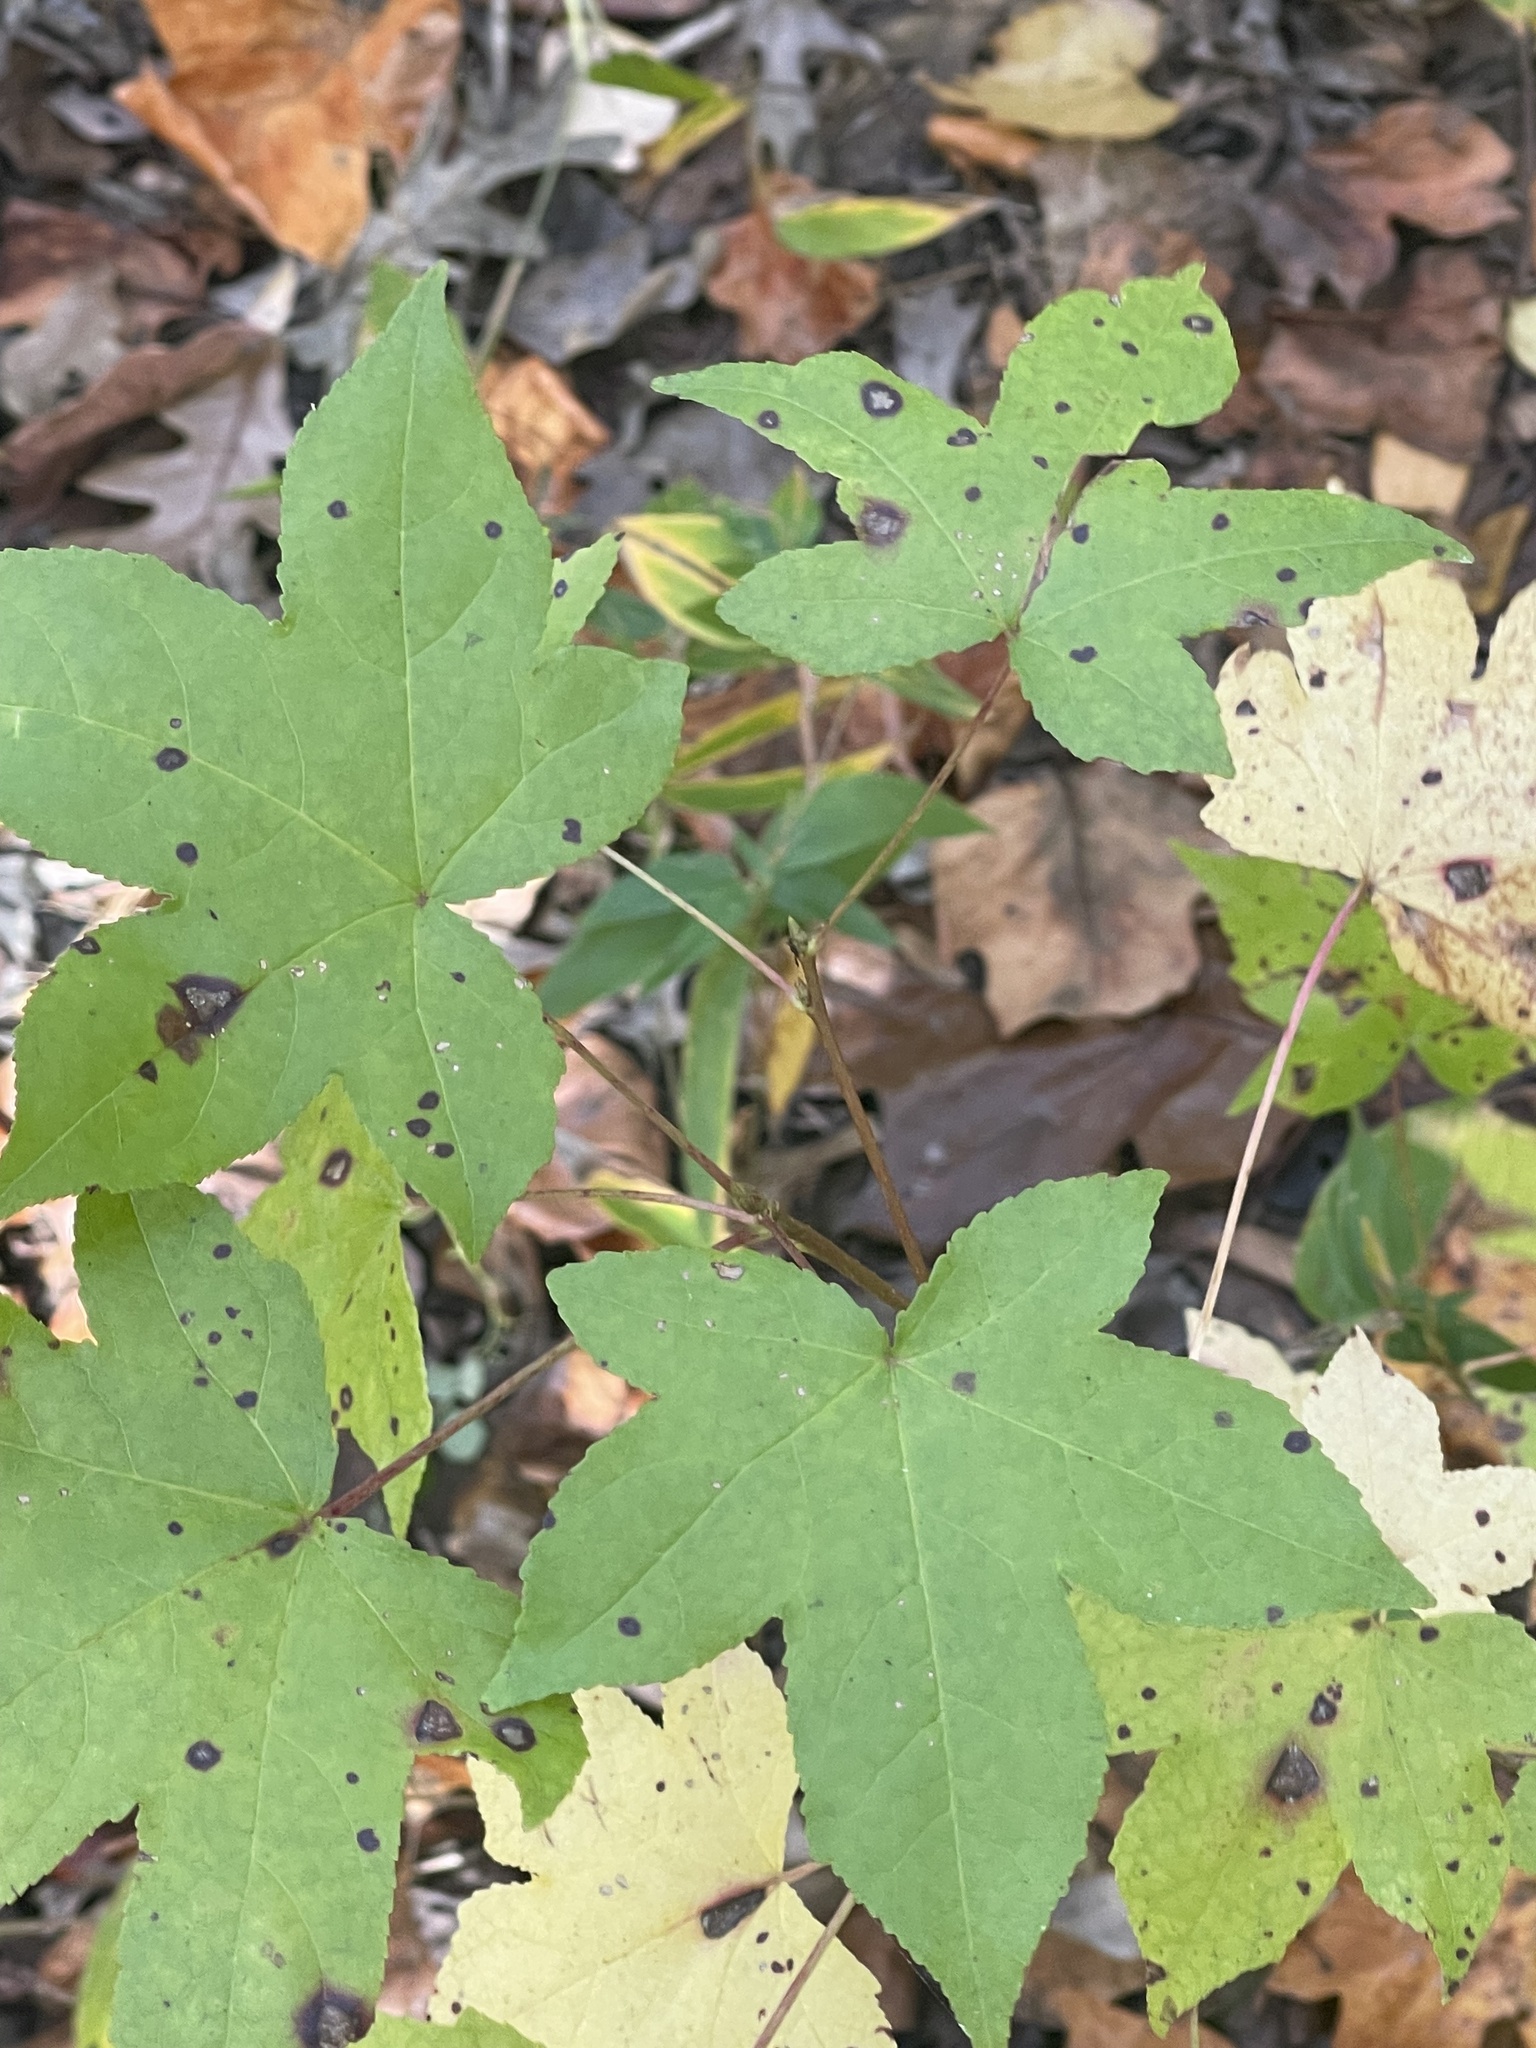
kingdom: Plantae
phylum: Tracheophyta
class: Magnoliopsida
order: Saxifragales
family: Altingiaceae
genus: Liquidambar
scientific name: Liquidambar styraciflua
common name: Sweet gum
